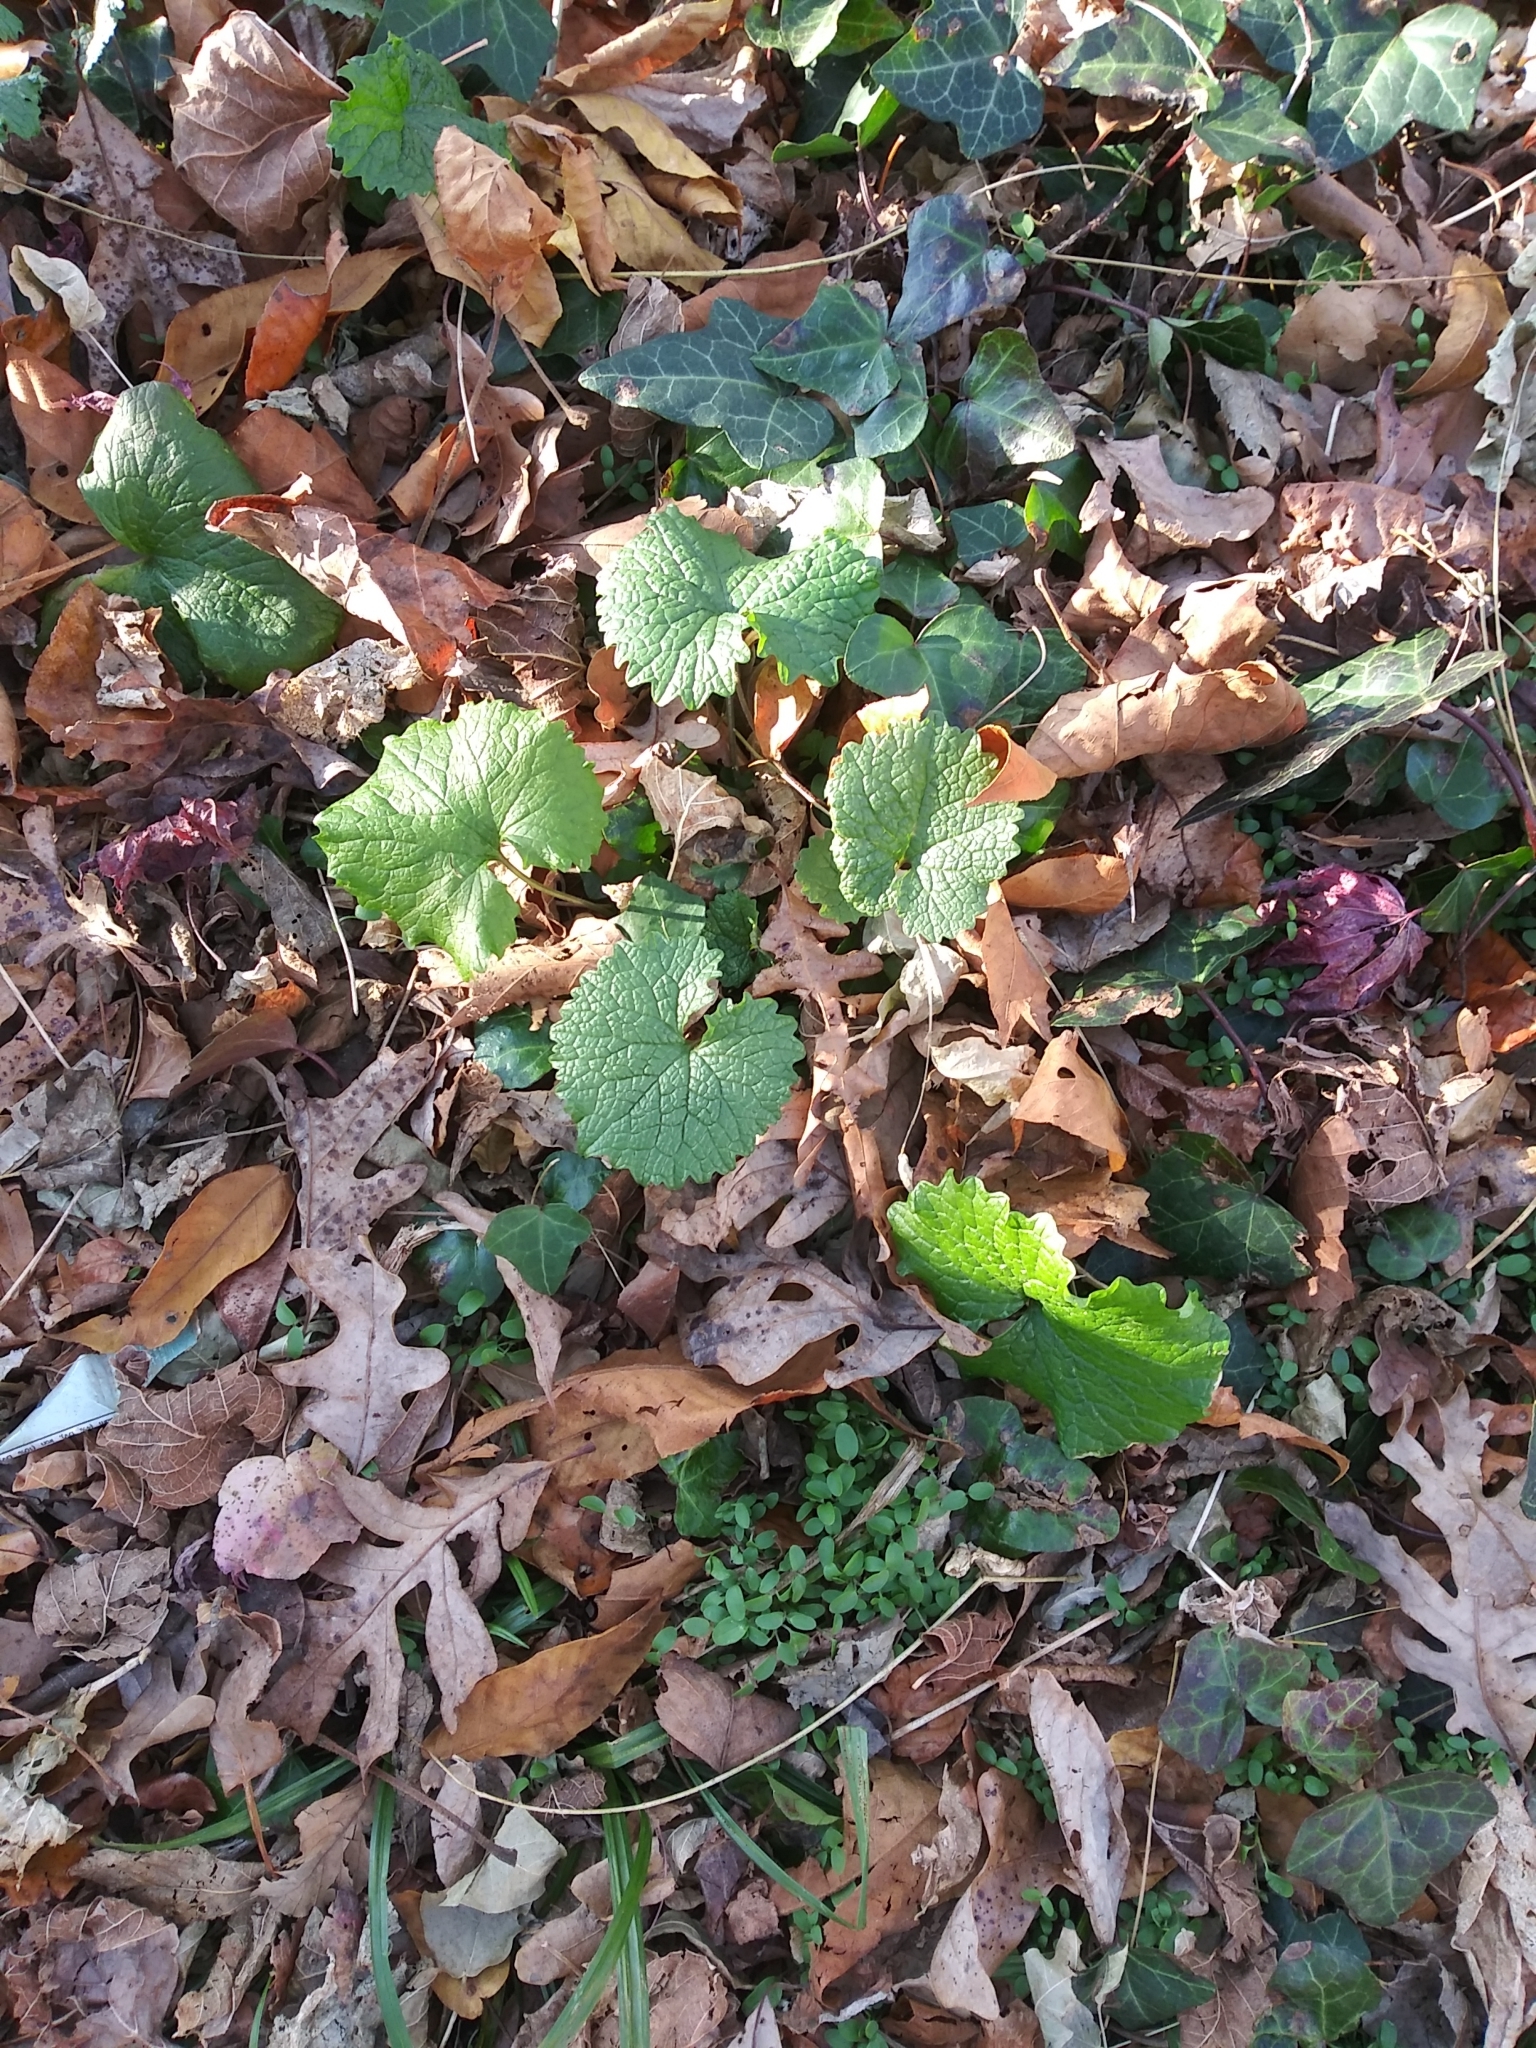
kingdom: Plantae
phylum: Tracheophyta
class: Magnoliopsida
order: Brassicales
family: Brassicaceae
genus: Alliaria
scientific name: Alliaria petiolata
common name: Garlic mustard
